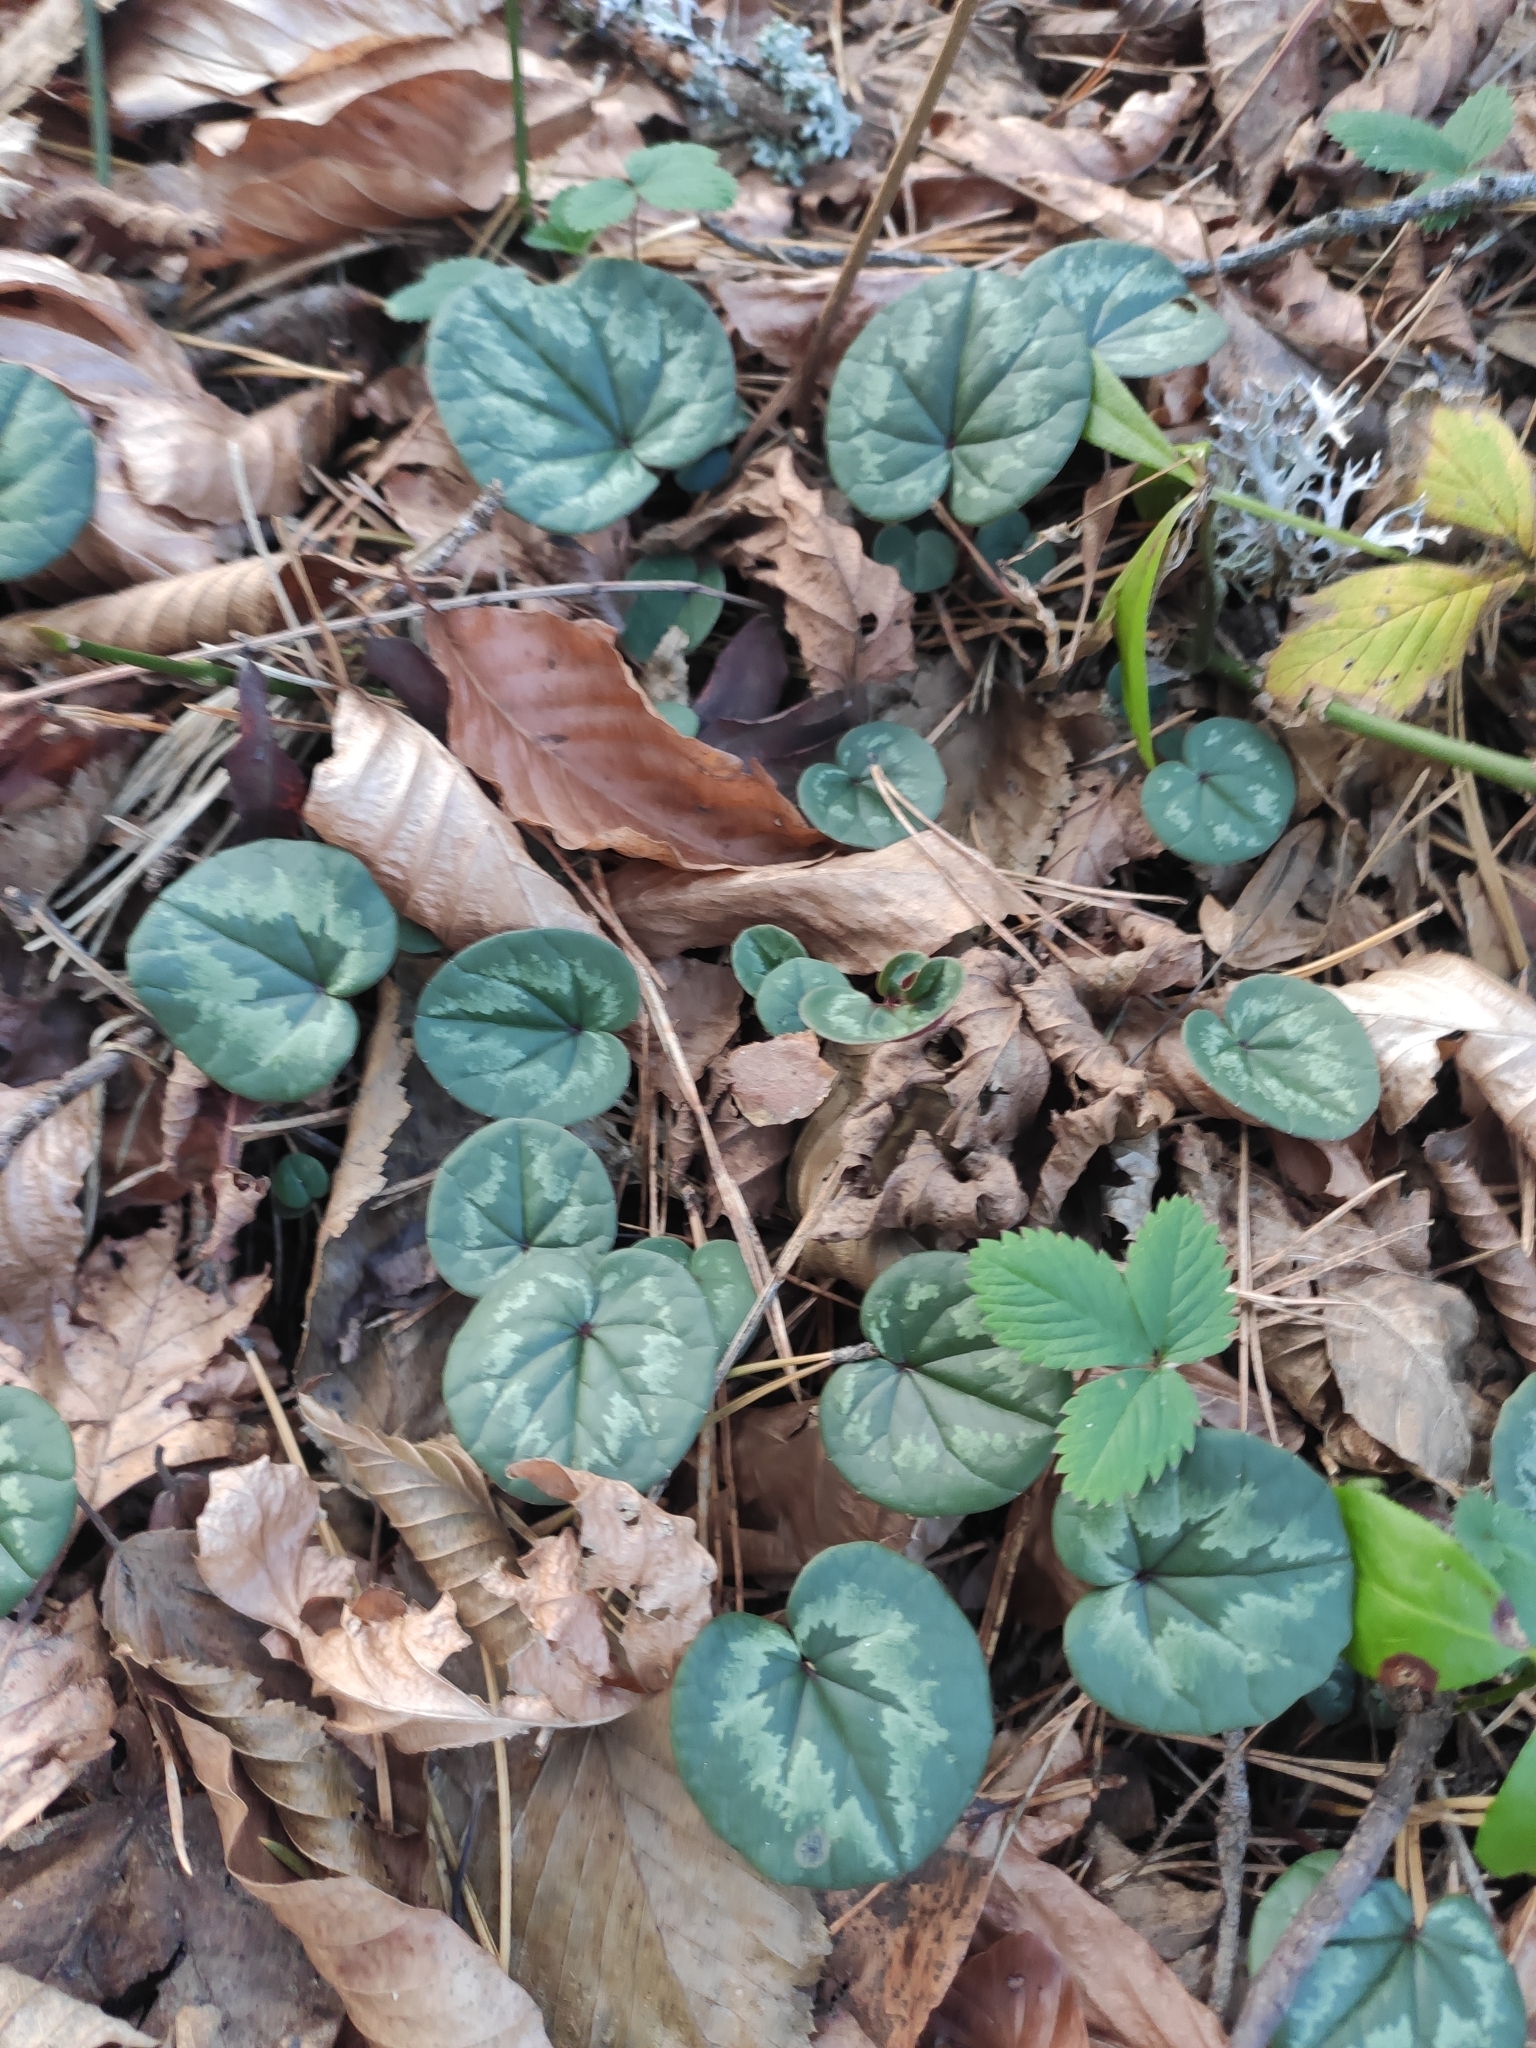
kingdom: Plantae
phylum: Tracheophyta
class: Magnoliopsida
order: Ericales
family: Primulaceae
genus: Cyclamen
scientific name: Cyclamen coum
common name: Eastern sowbread
